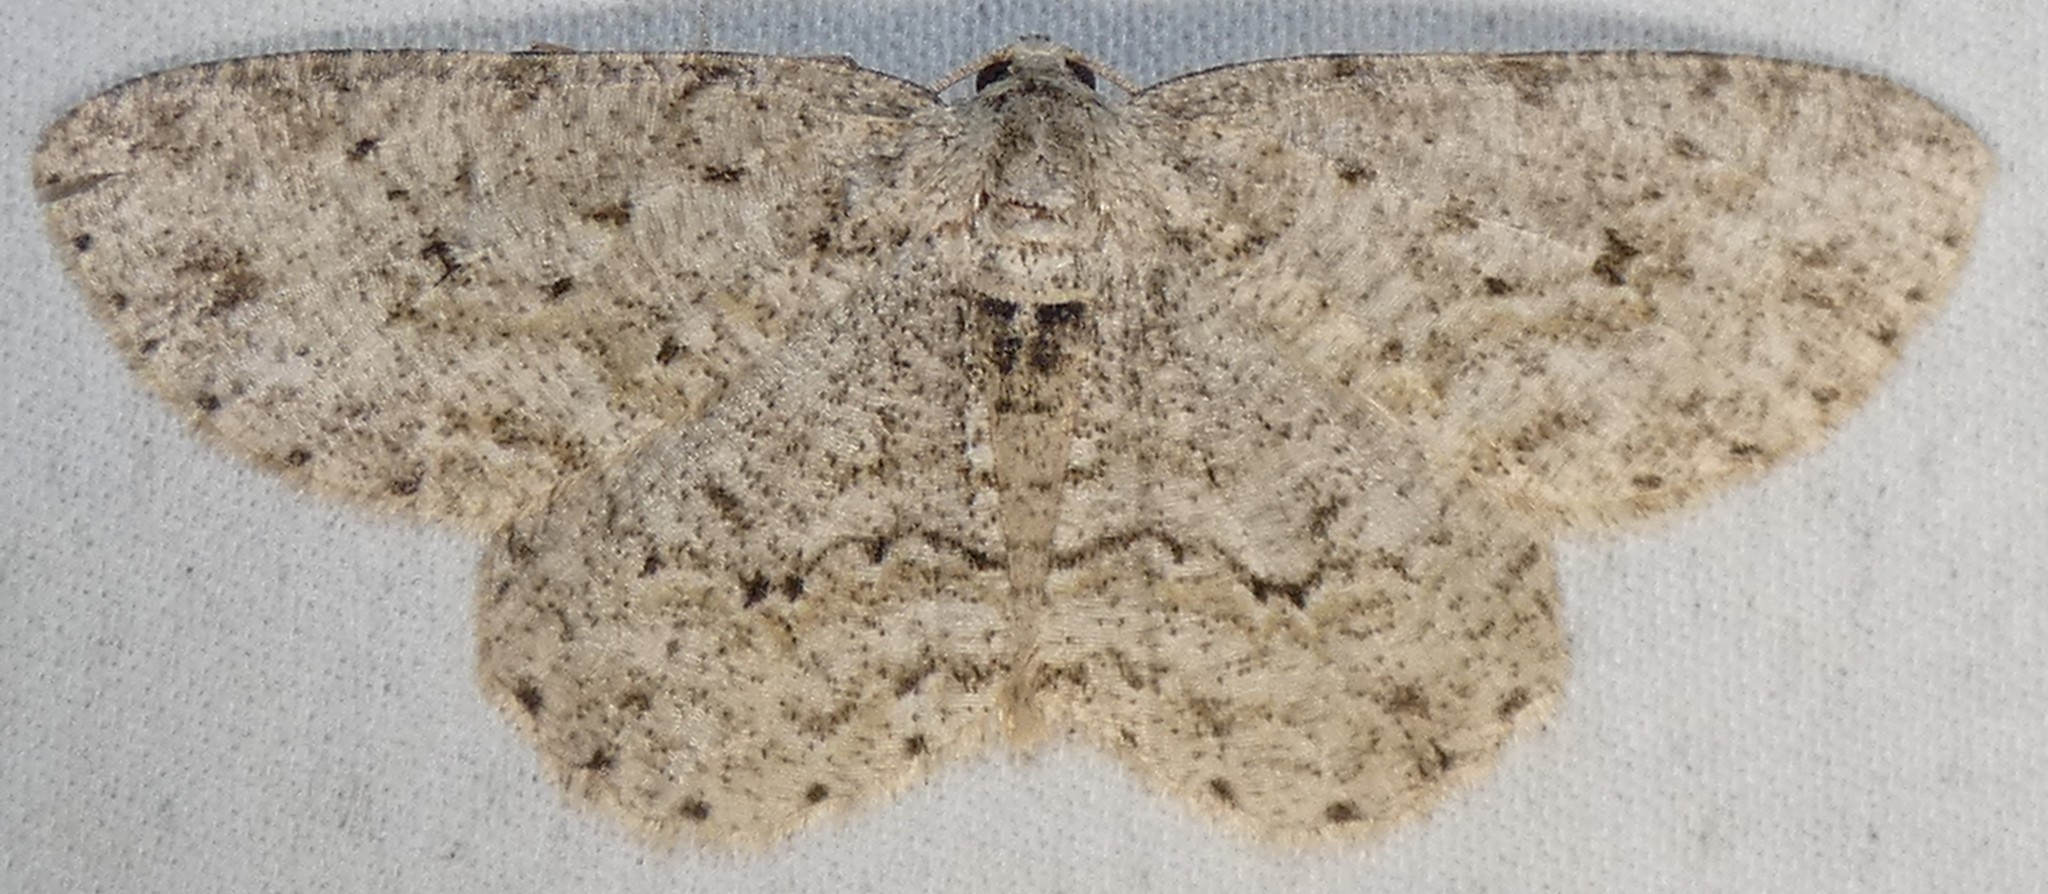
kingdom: Animalia
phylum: Arthropoda
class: Insecta
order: Lepidoptera
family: Geometridae
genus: Ectropis
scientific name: Ectropis crepuscularia
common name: Engrailed
